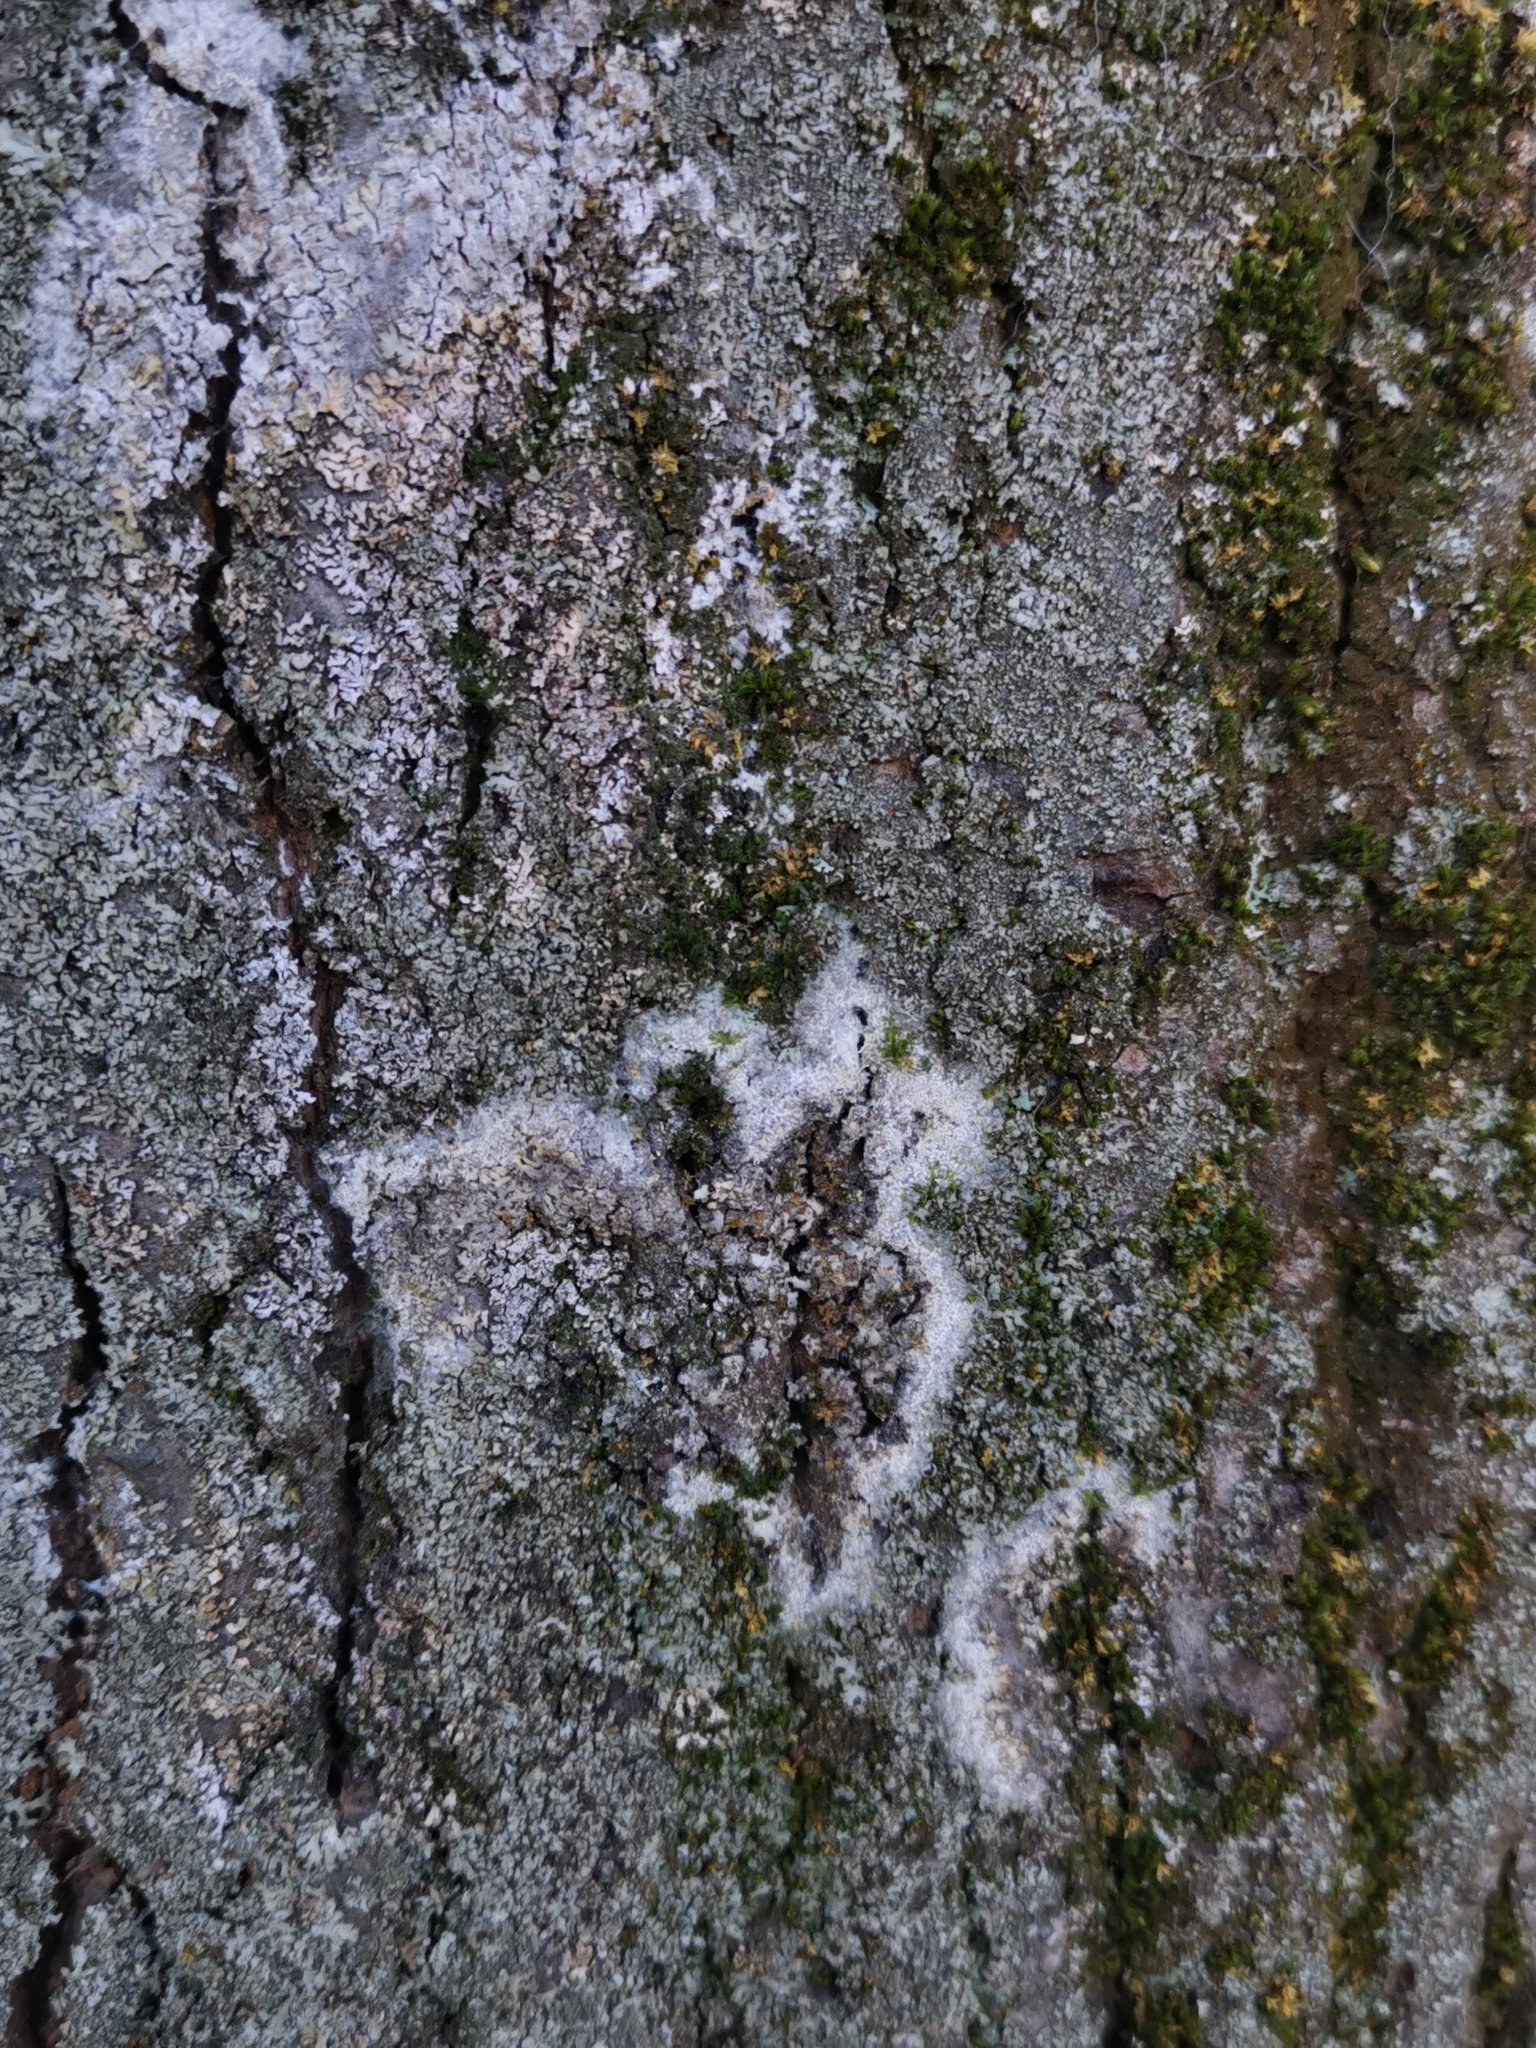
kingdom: Fungi
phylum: Basidiomycota
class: Agaricomycetes
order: Atheliales
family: Atheliaceae
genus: Athelia
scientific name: Athelia arachnoidea
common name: Candelabra duster
